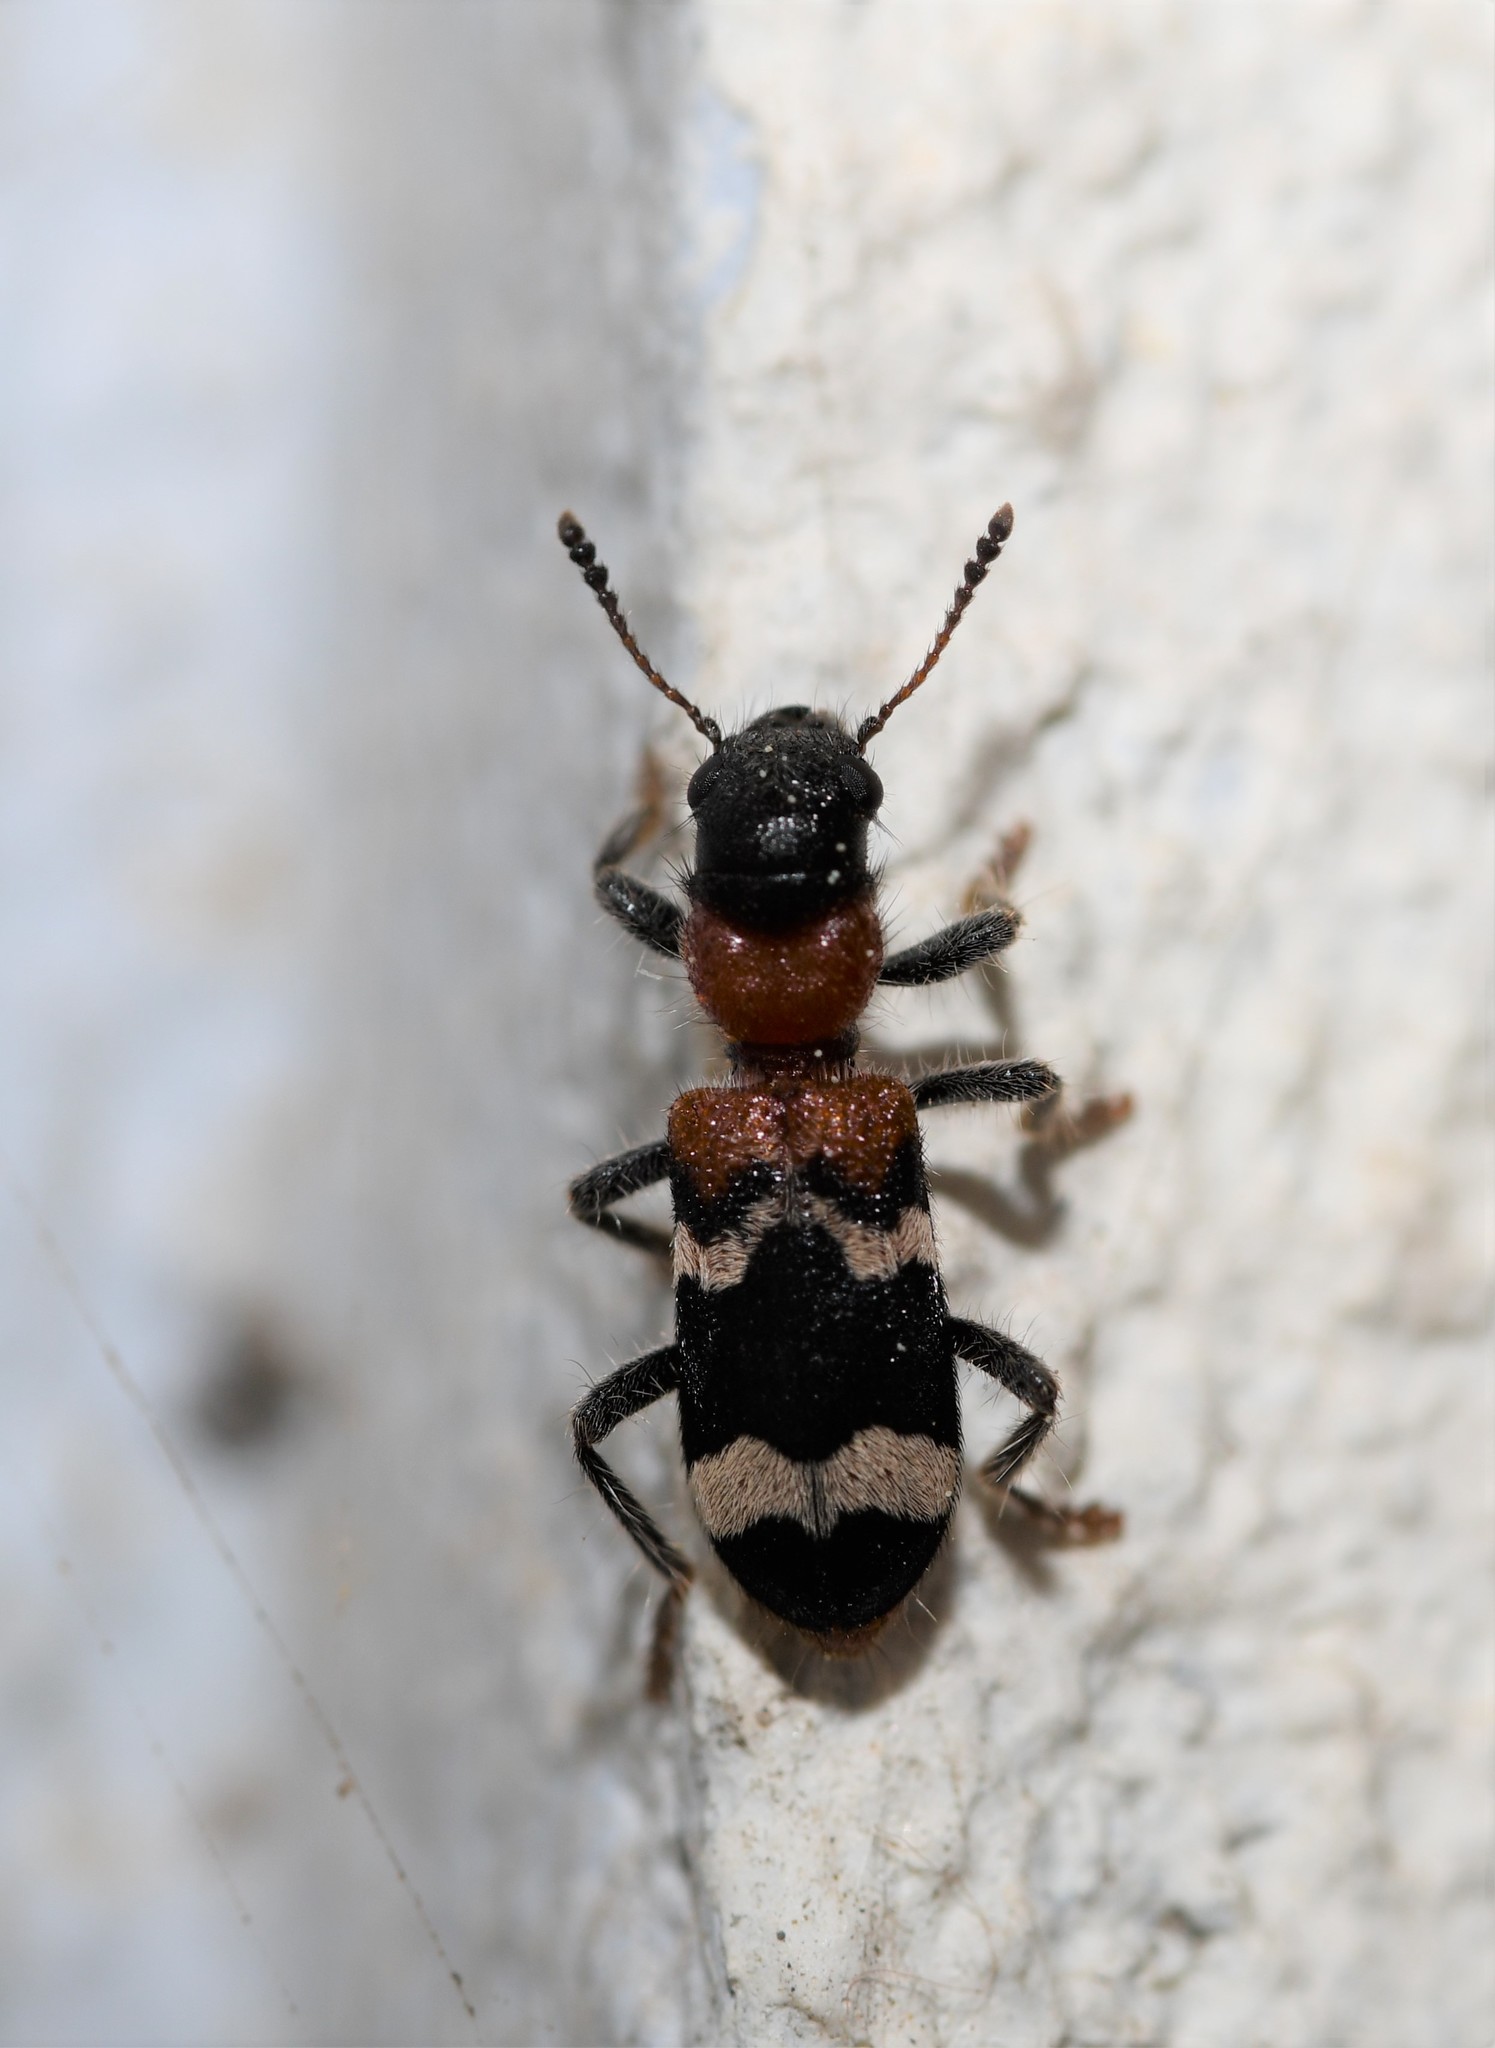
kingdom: Animalia
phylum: Arthropoda
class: Insecta
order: Coleoptera
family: Cleridae
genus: Thanasimus
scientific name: Thanasimus formicarius
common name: Ant beetle
